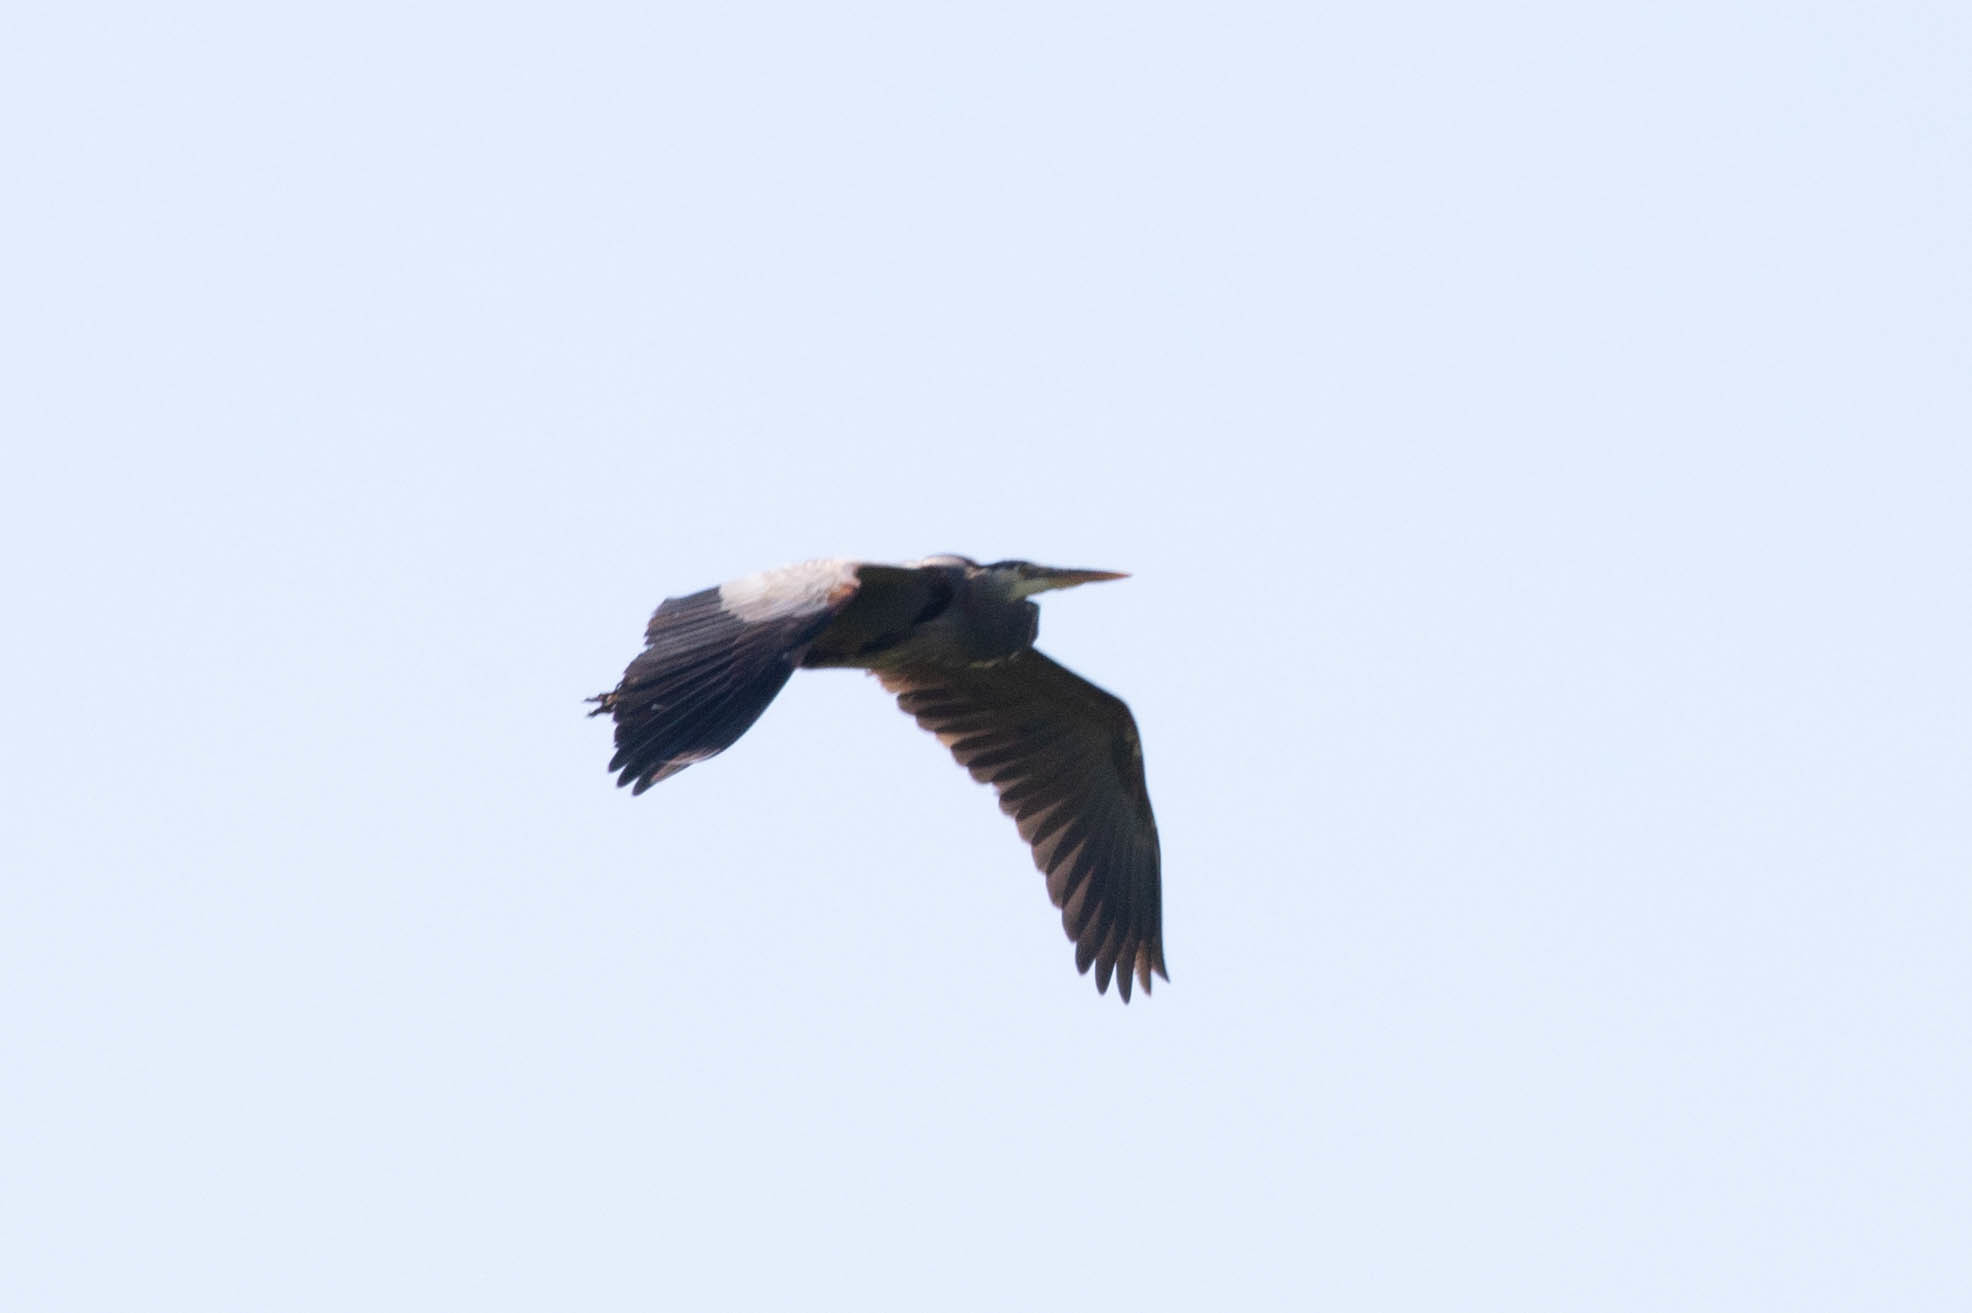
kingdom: Animalia
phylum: Chordata
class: Aves
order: Pelecaniformes
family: Ardeidae
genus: Ardea
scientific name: Ardea herodias
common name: Great blue heron
